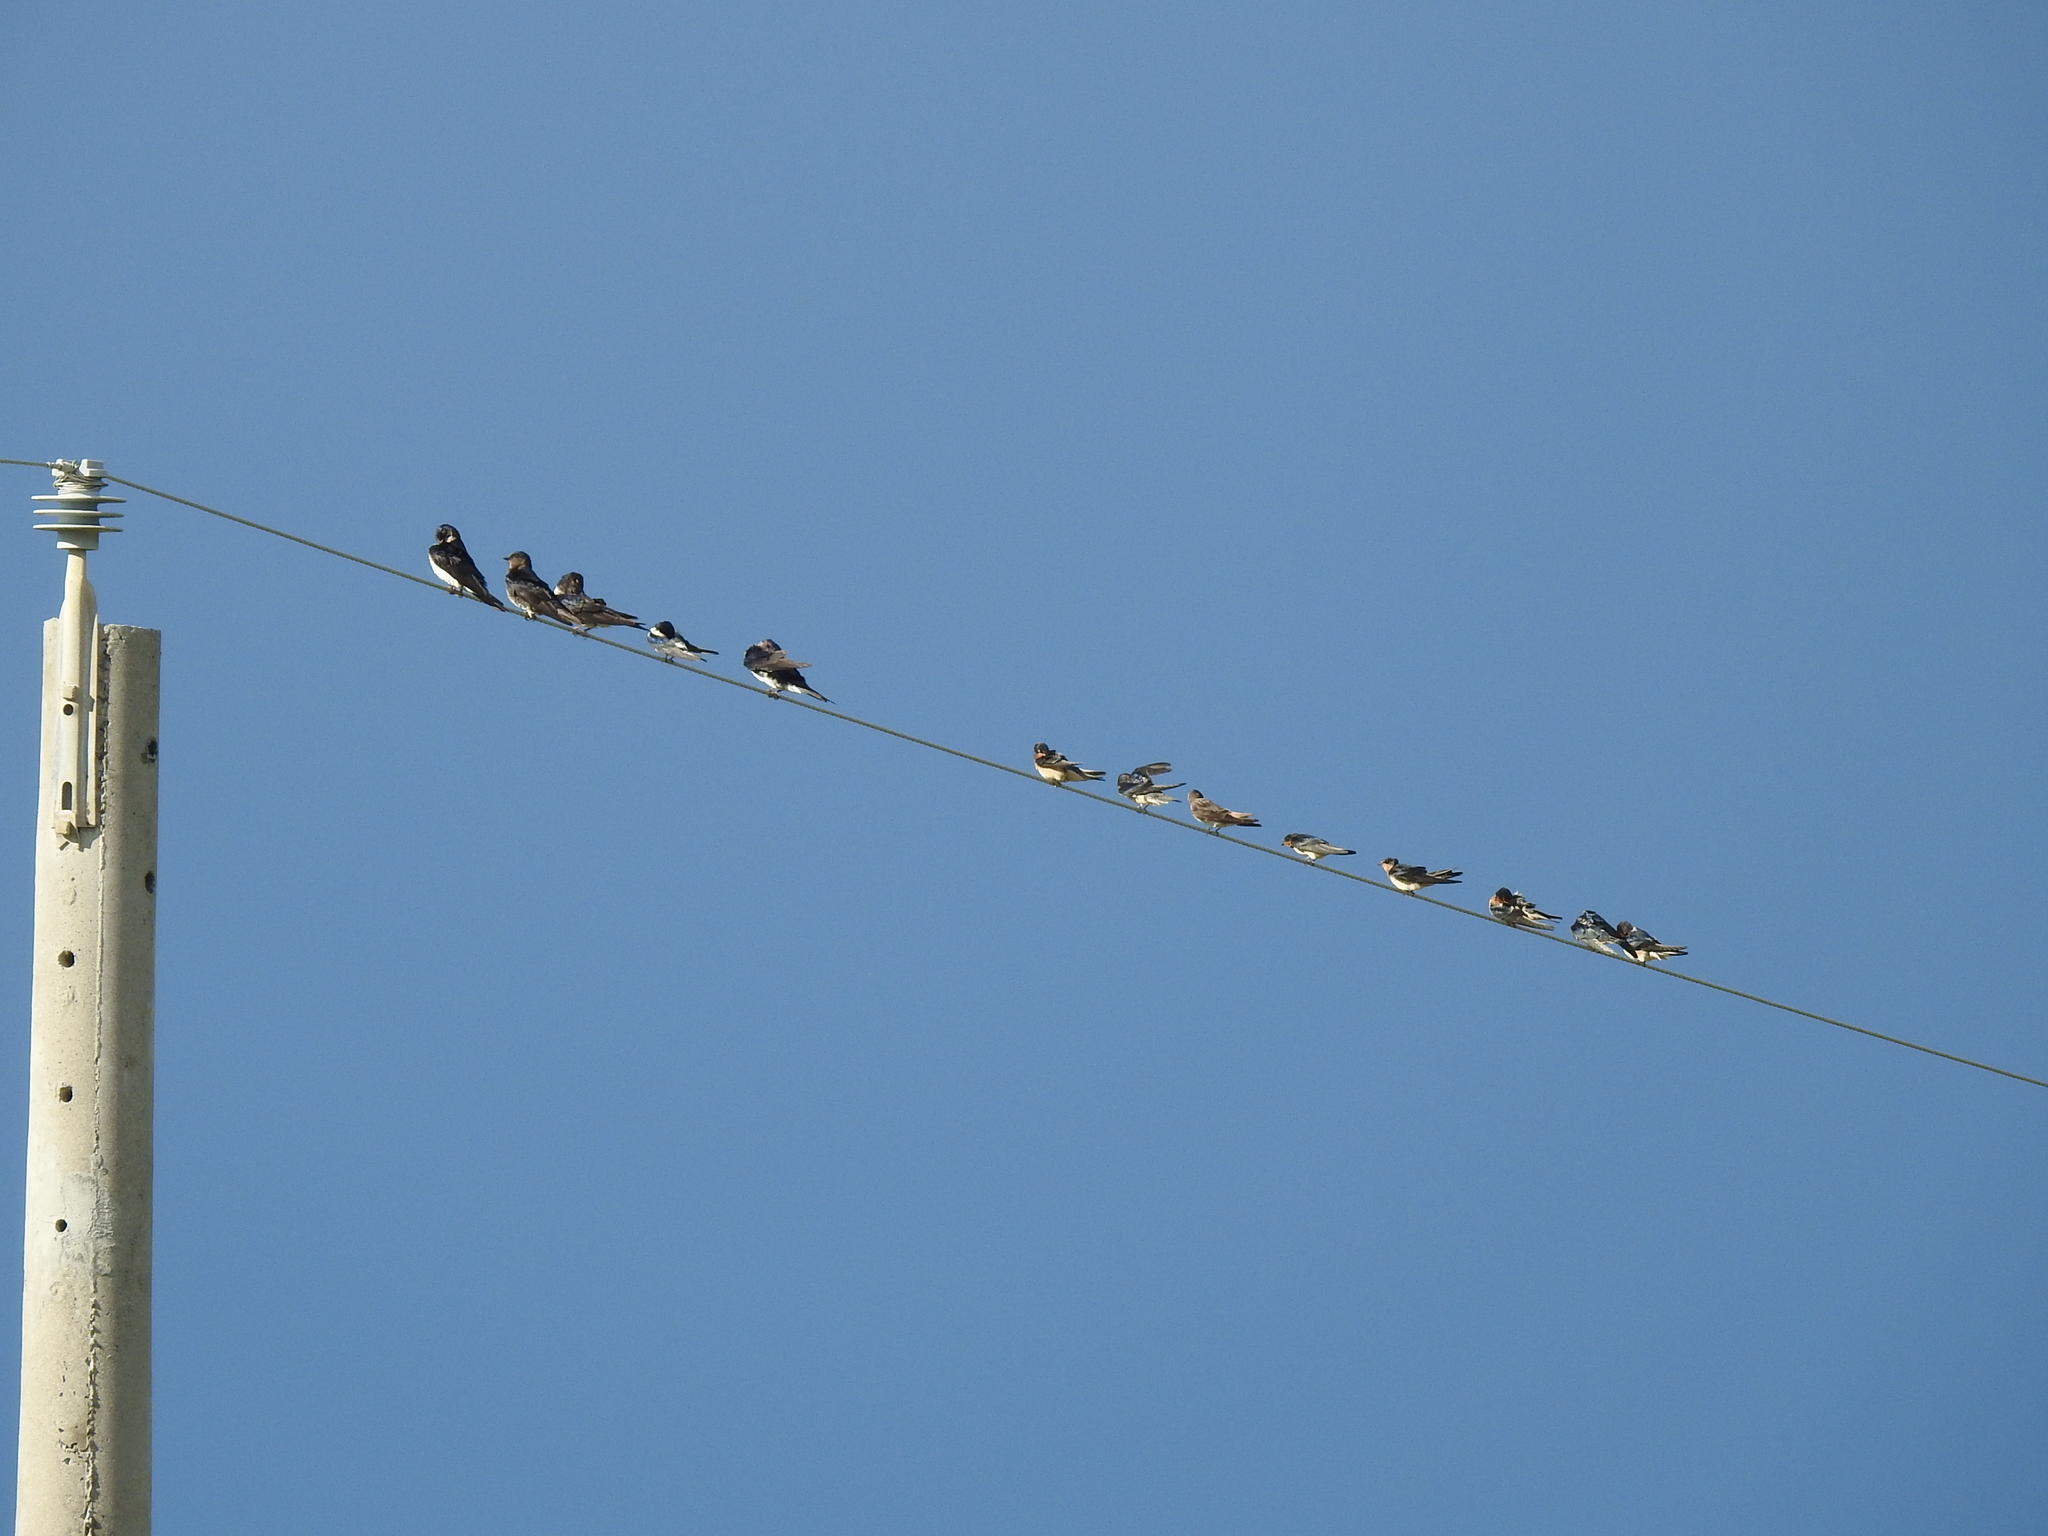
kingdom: Animalia
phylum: Chordata
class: Aves
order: Passeriformes
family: Hirundinidae
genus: Hirundo
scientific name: Hirundo rustica
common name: Barn swallow
